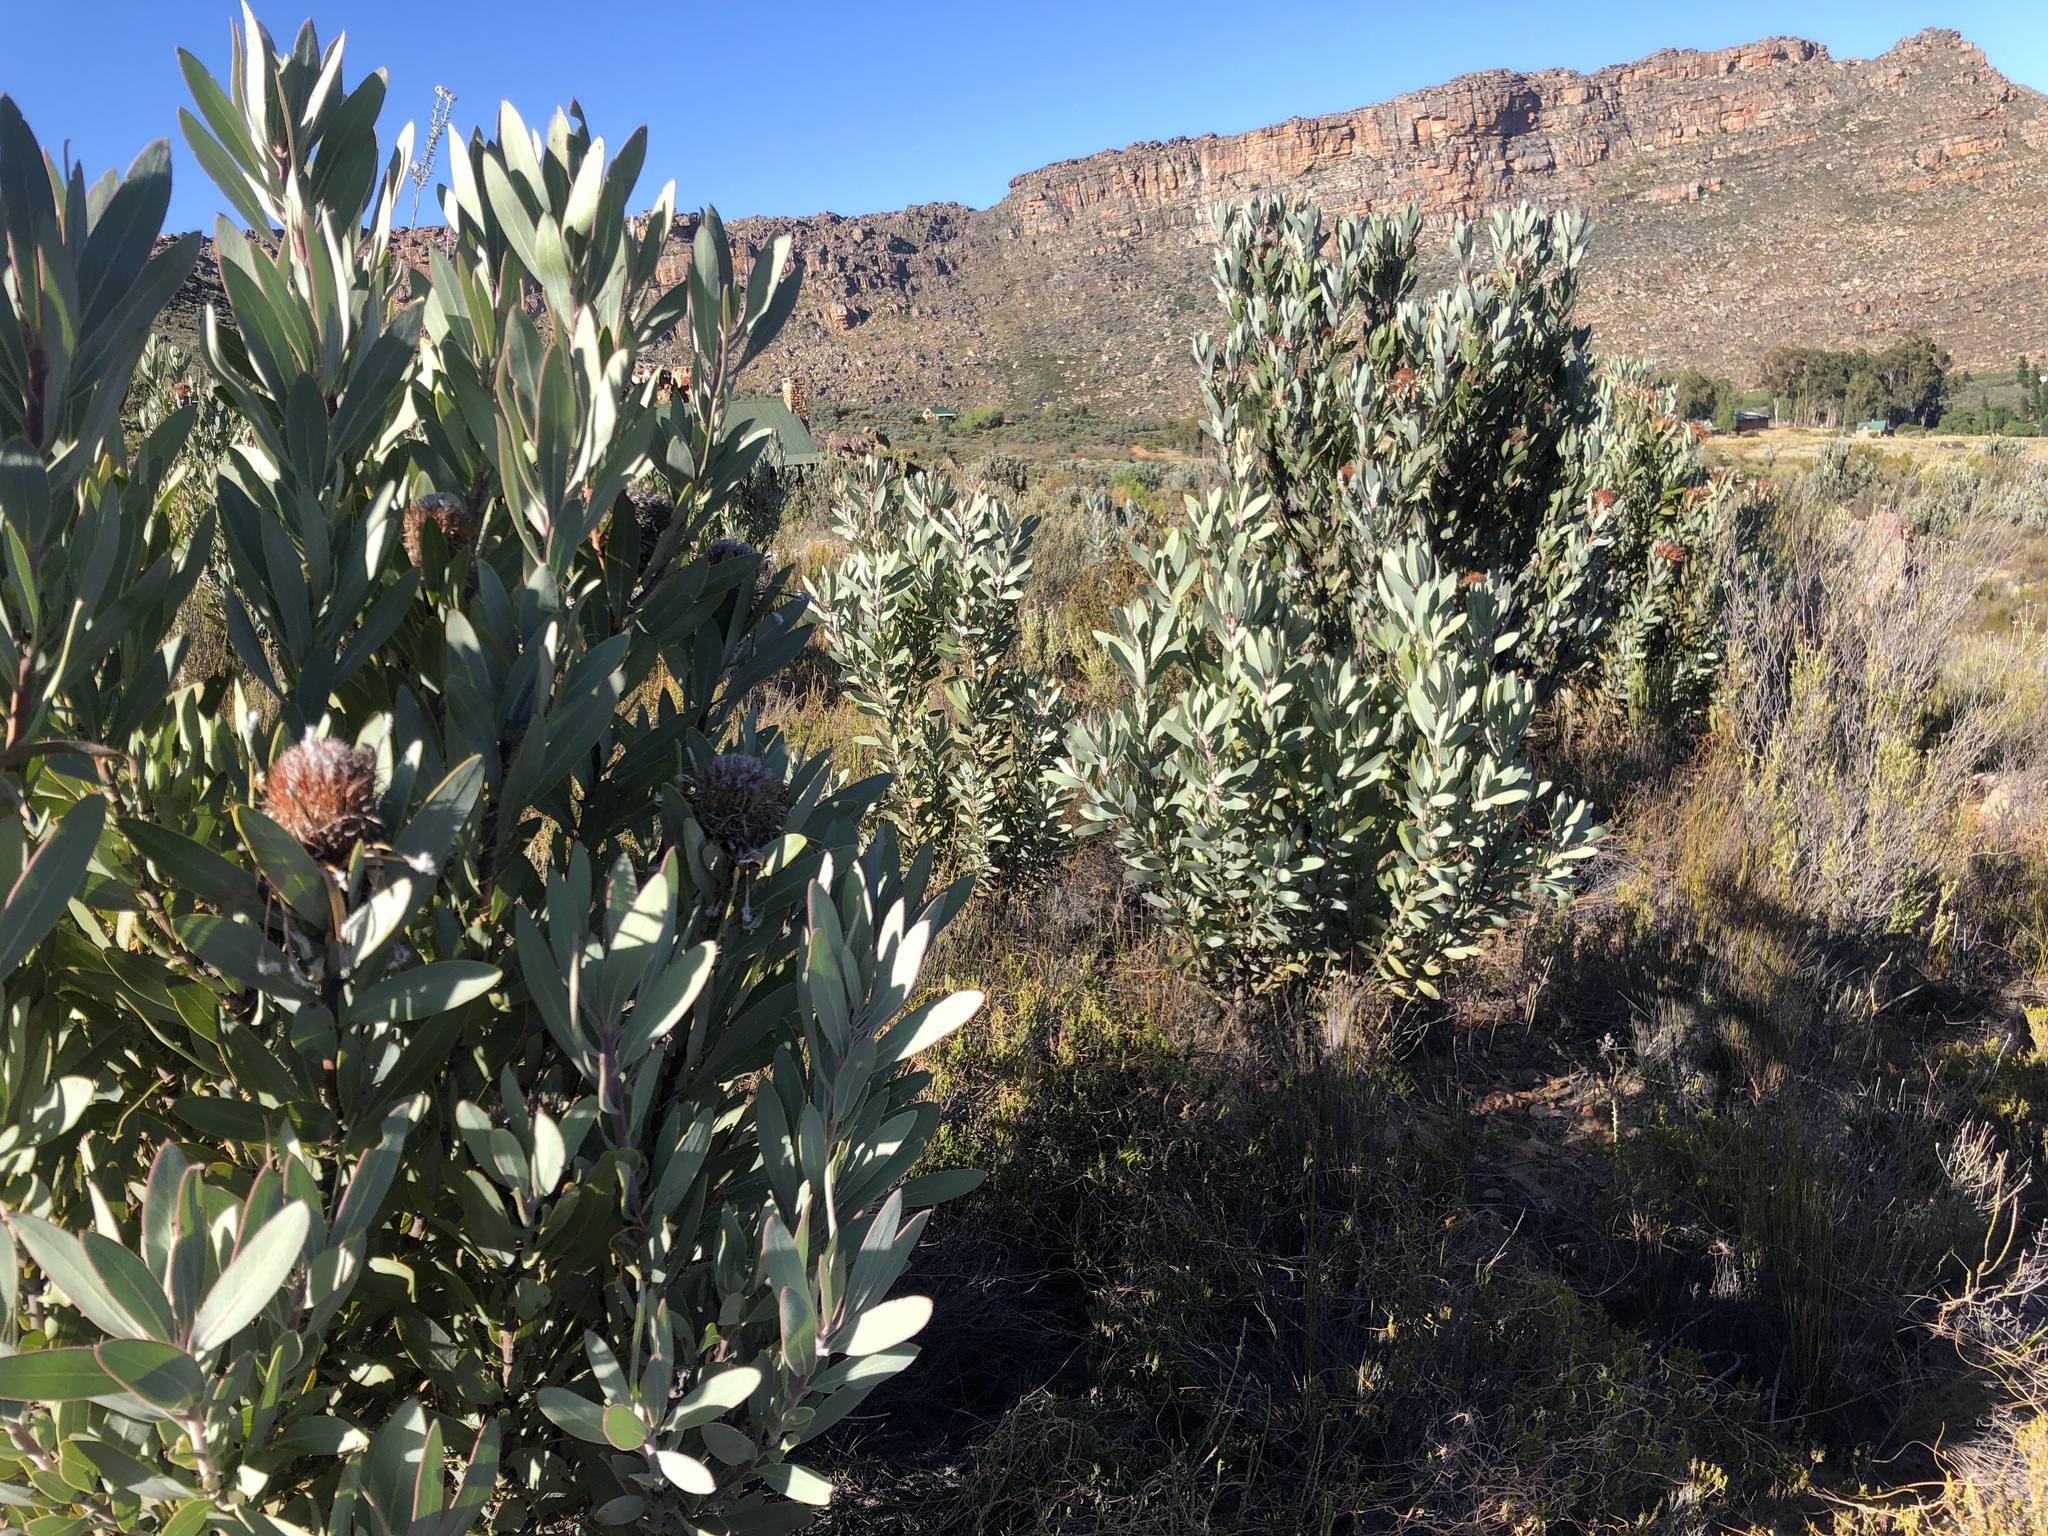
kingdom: Plantae
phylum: Tracheophyta
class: Magnoliopsida
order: Proteales
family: Proteaceae
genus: Protea
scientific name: Protea laurifolia
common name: Grey-leaf sugarbsh
